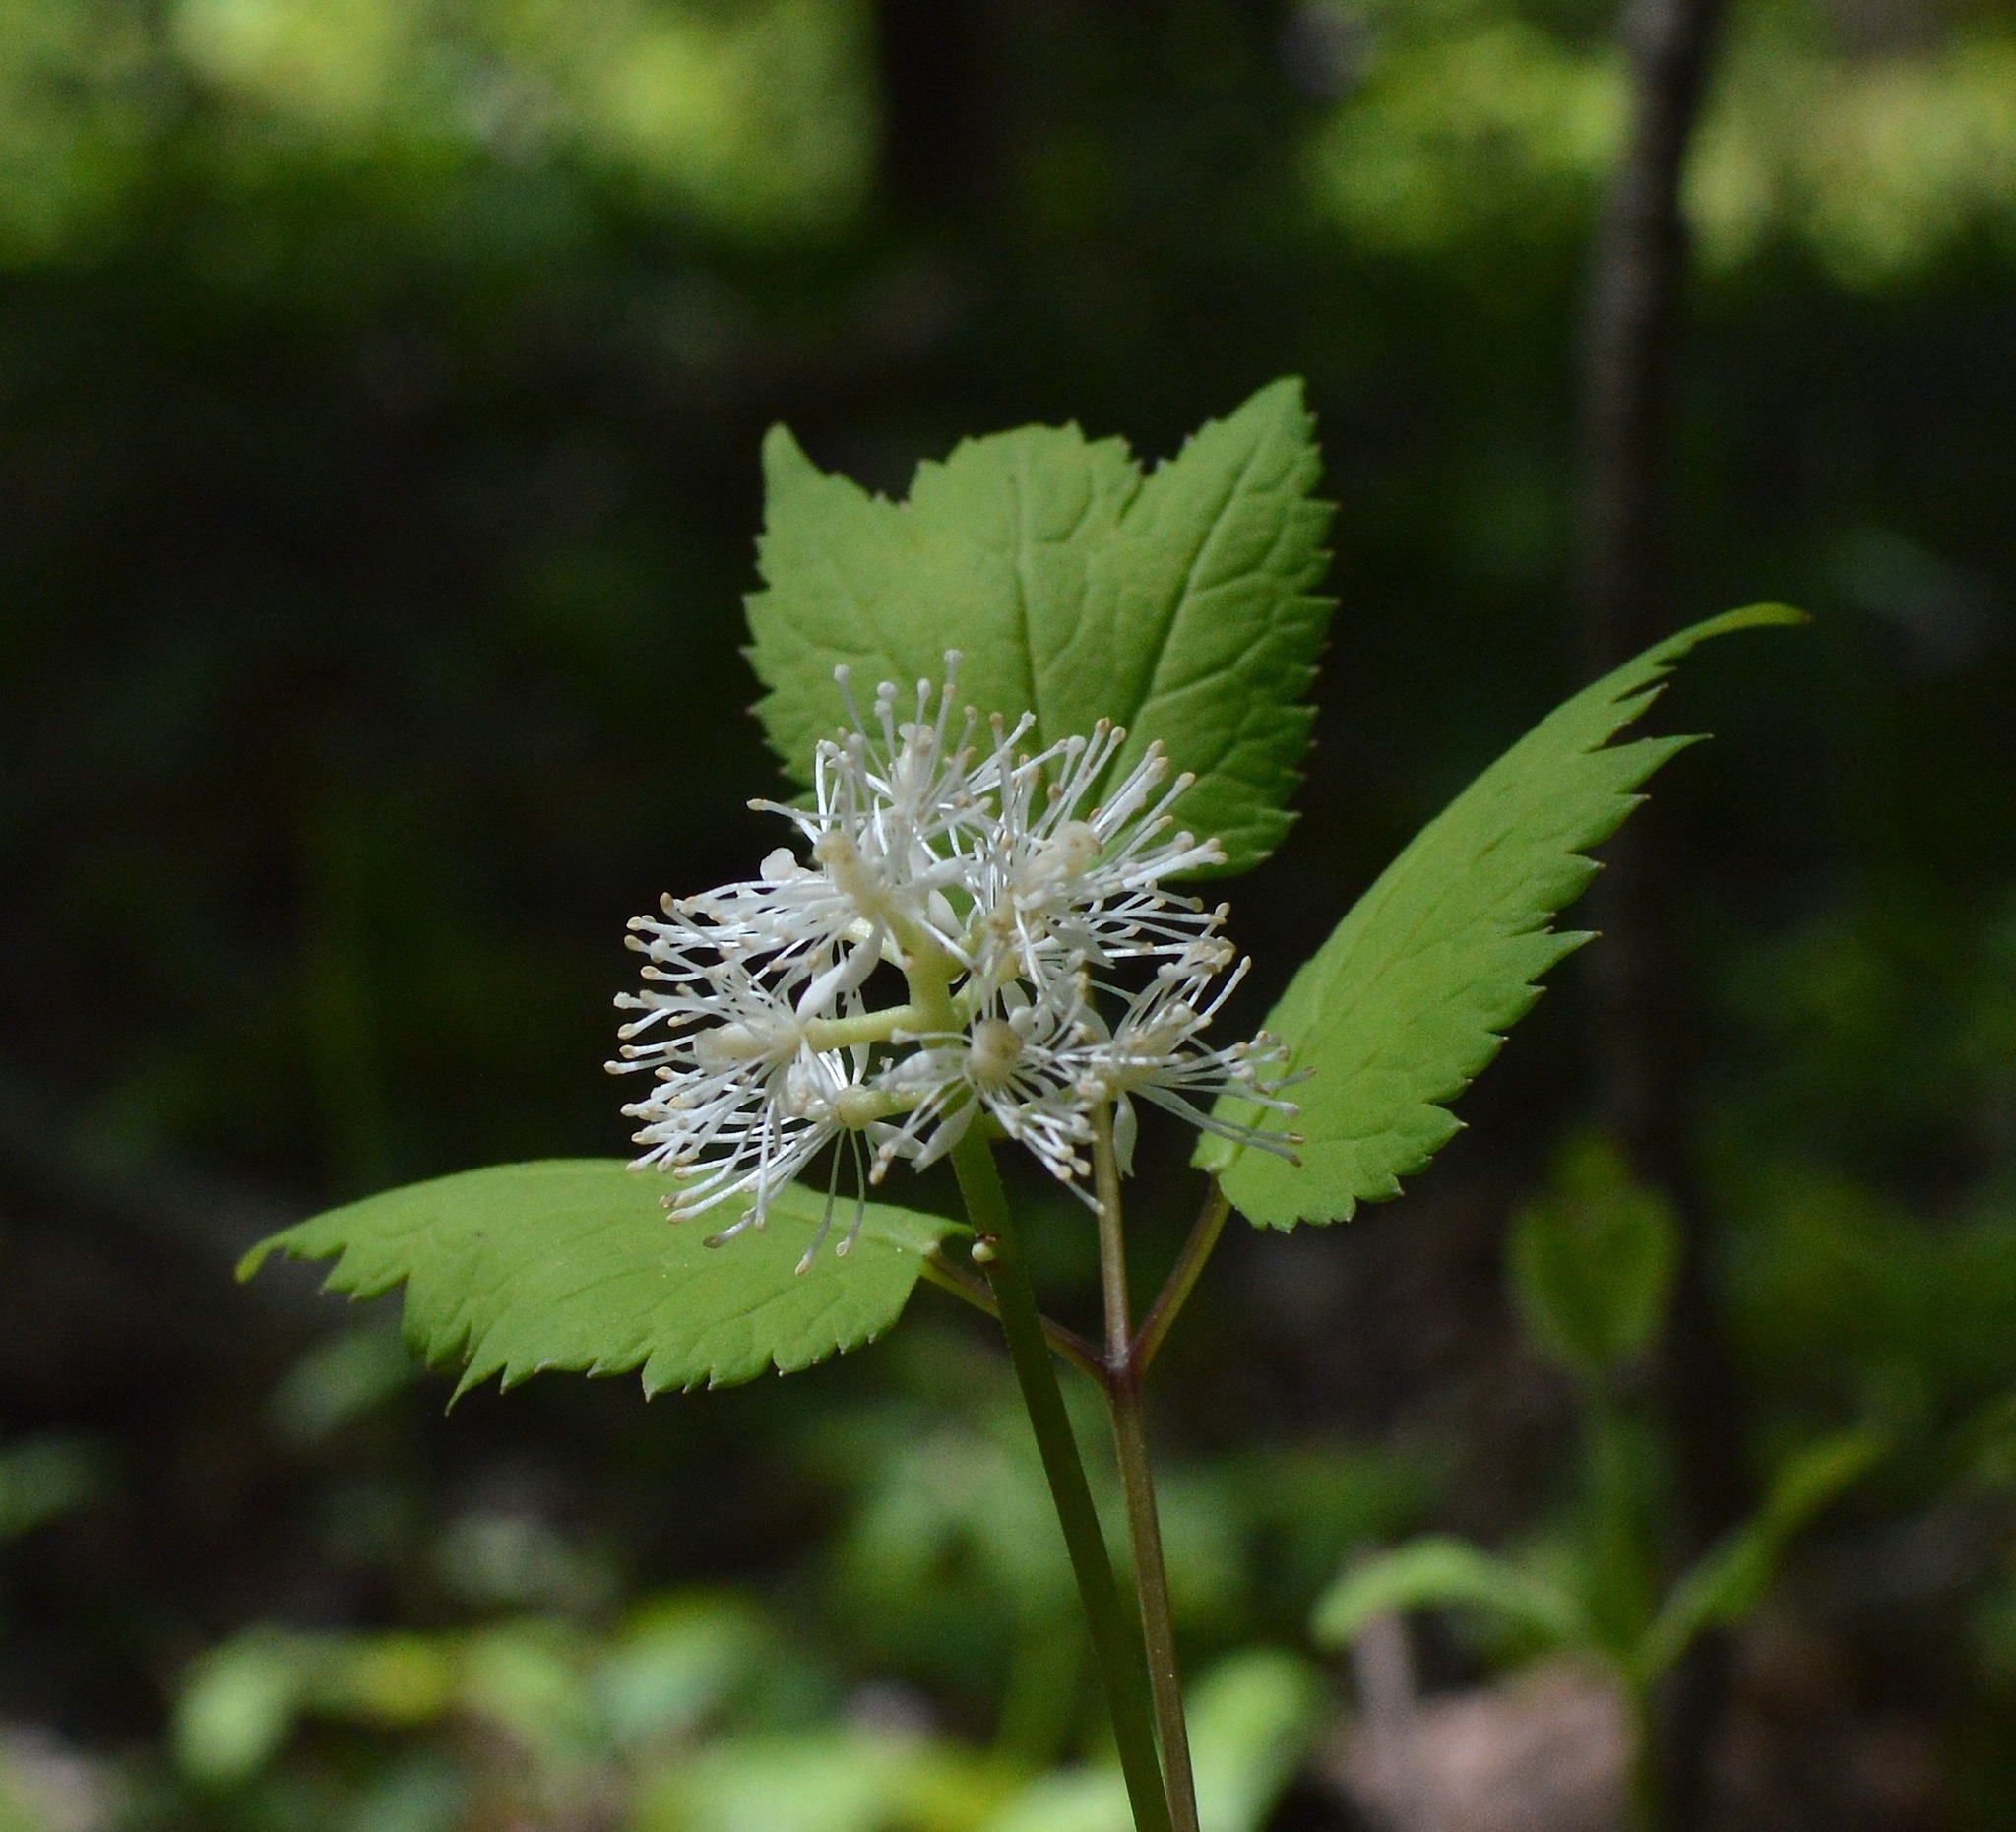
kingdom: Plantae
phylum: Tracheophyta
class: Magnoliopsida
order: Ranunculales
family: Ranunculaceae
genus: Actaea
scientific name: Actaea pachypoda
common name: Doll's-eyes
